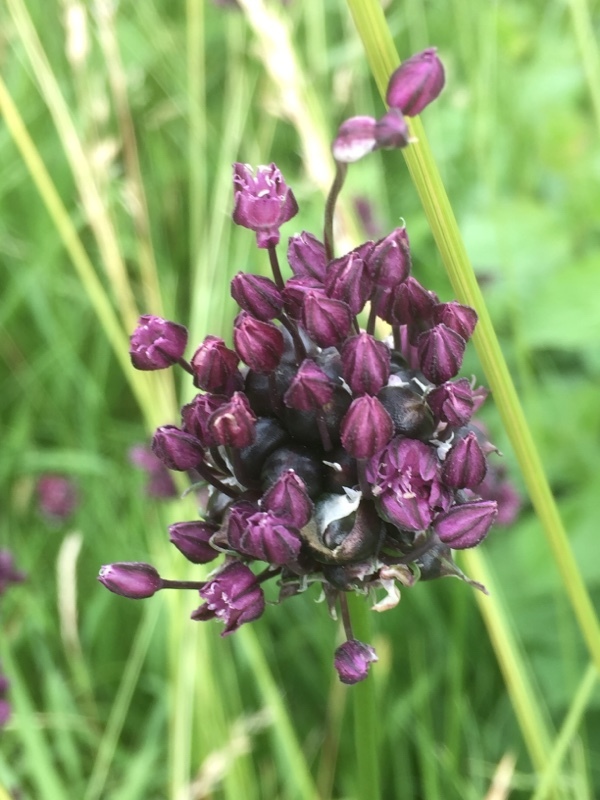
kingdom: Plantae
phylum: Tracheophyta
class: Liliopsida
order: Asparagales
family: Amaryllidaceae
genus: Allium
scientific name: Allium scorodoprasum
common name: Sand leek
